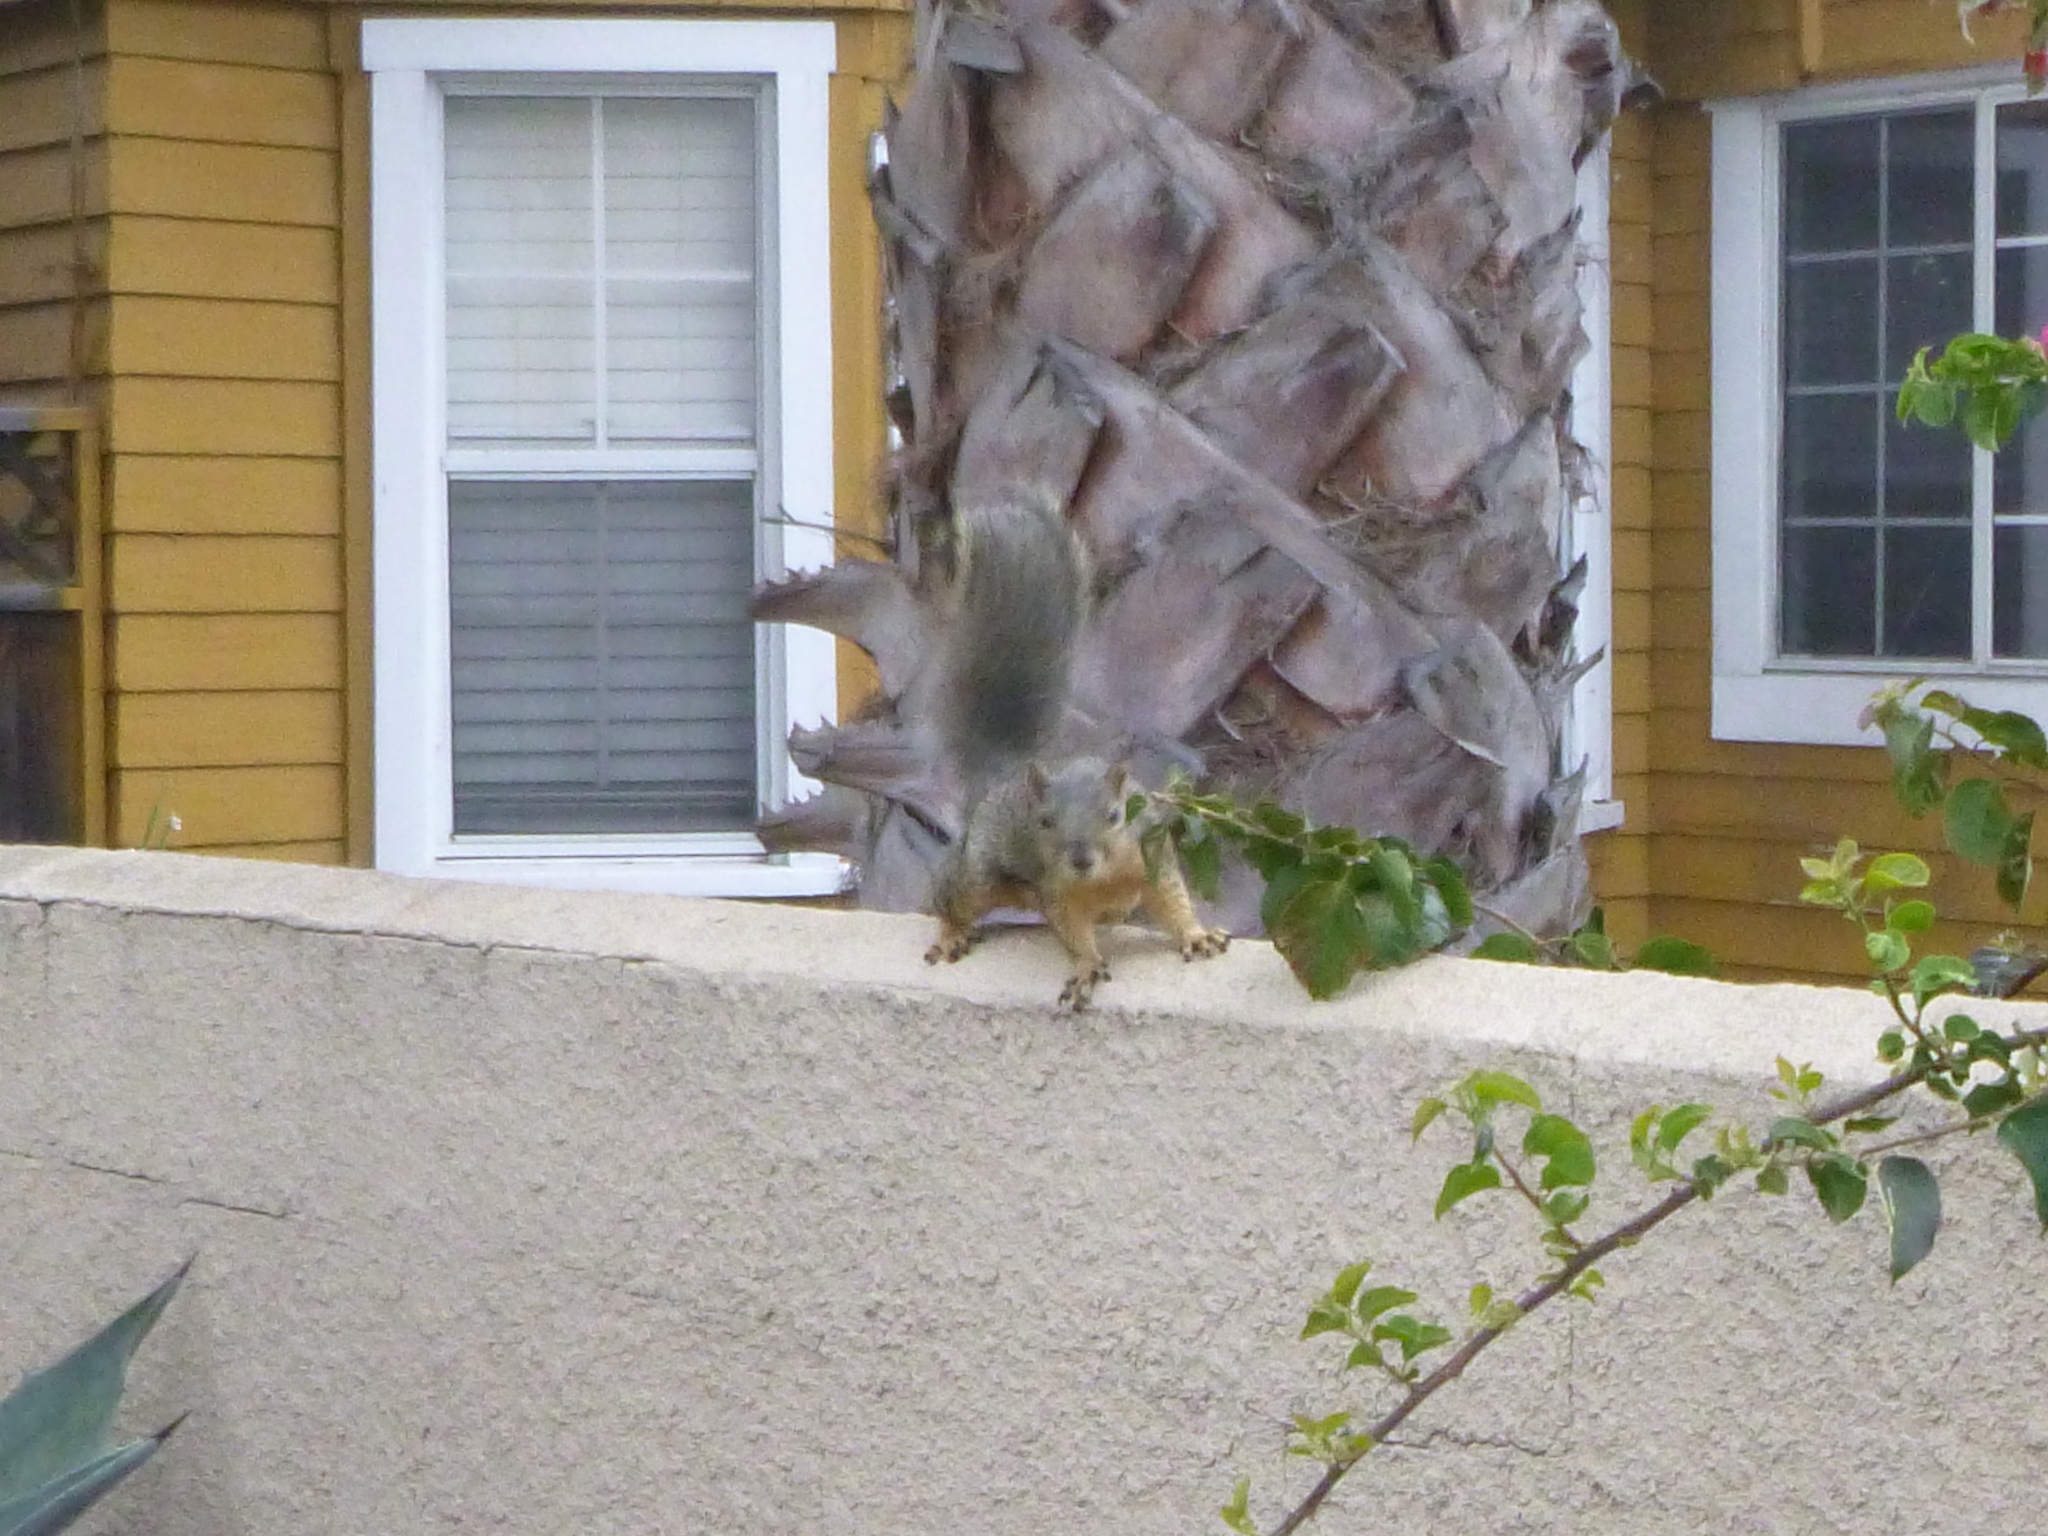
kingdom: Animalia
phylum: Chordata
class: Mammalia
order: Rodentia
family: Sciuridae
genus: Sciurus
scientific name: Sciurus niger
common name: Fox squirrel
